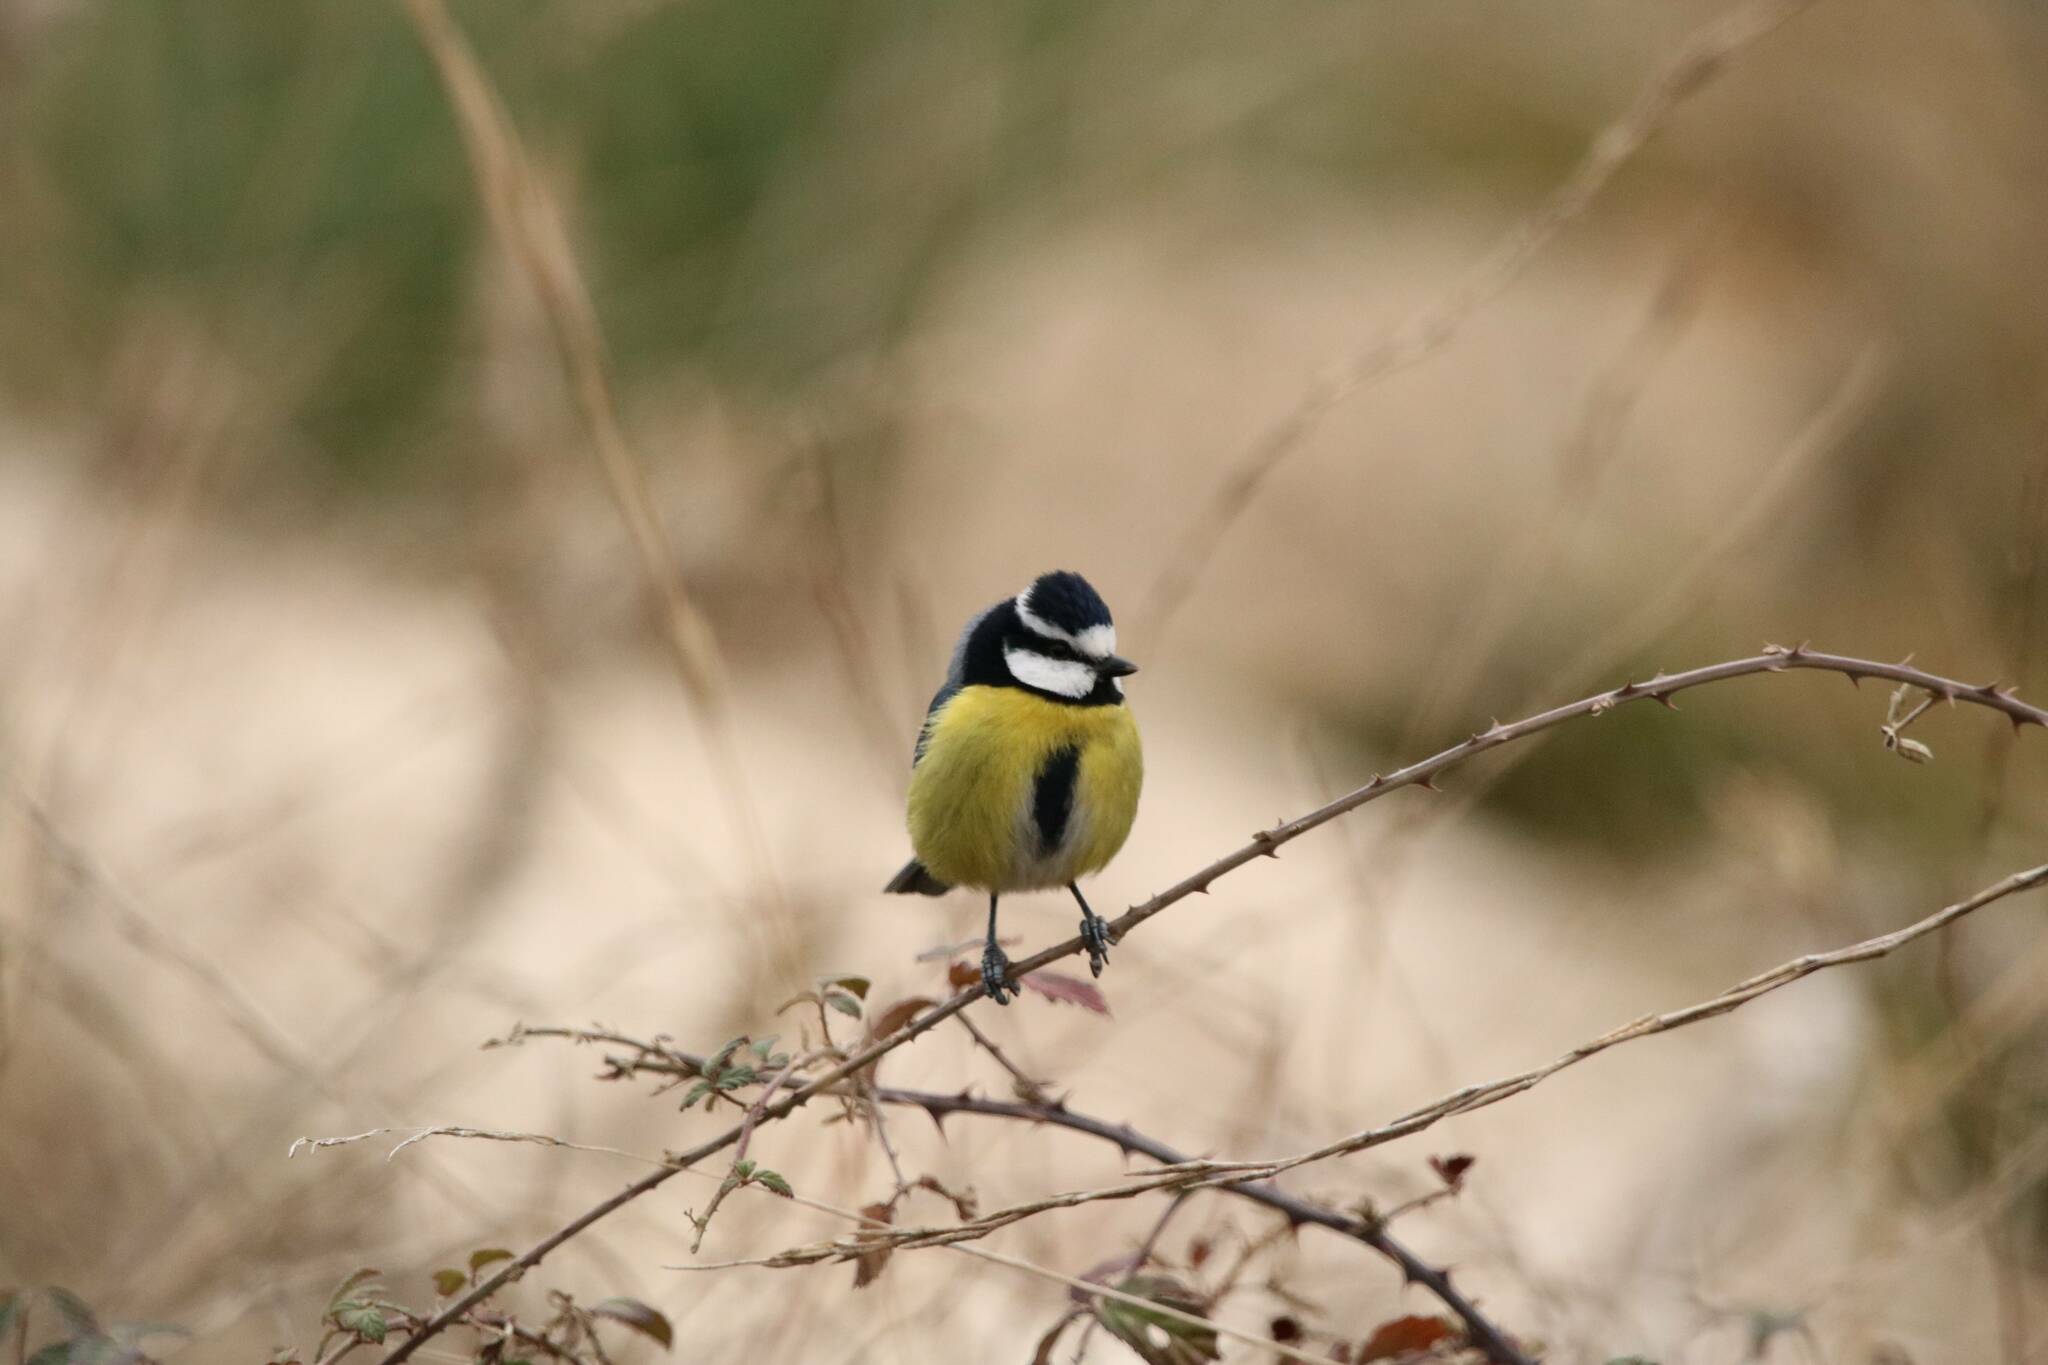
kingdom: Animalia
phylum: Chordata
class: Aves
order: Passeriformes
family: Paridae
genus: Cyanistes
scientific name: Cyanistes teneriffae
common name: African blue tit
